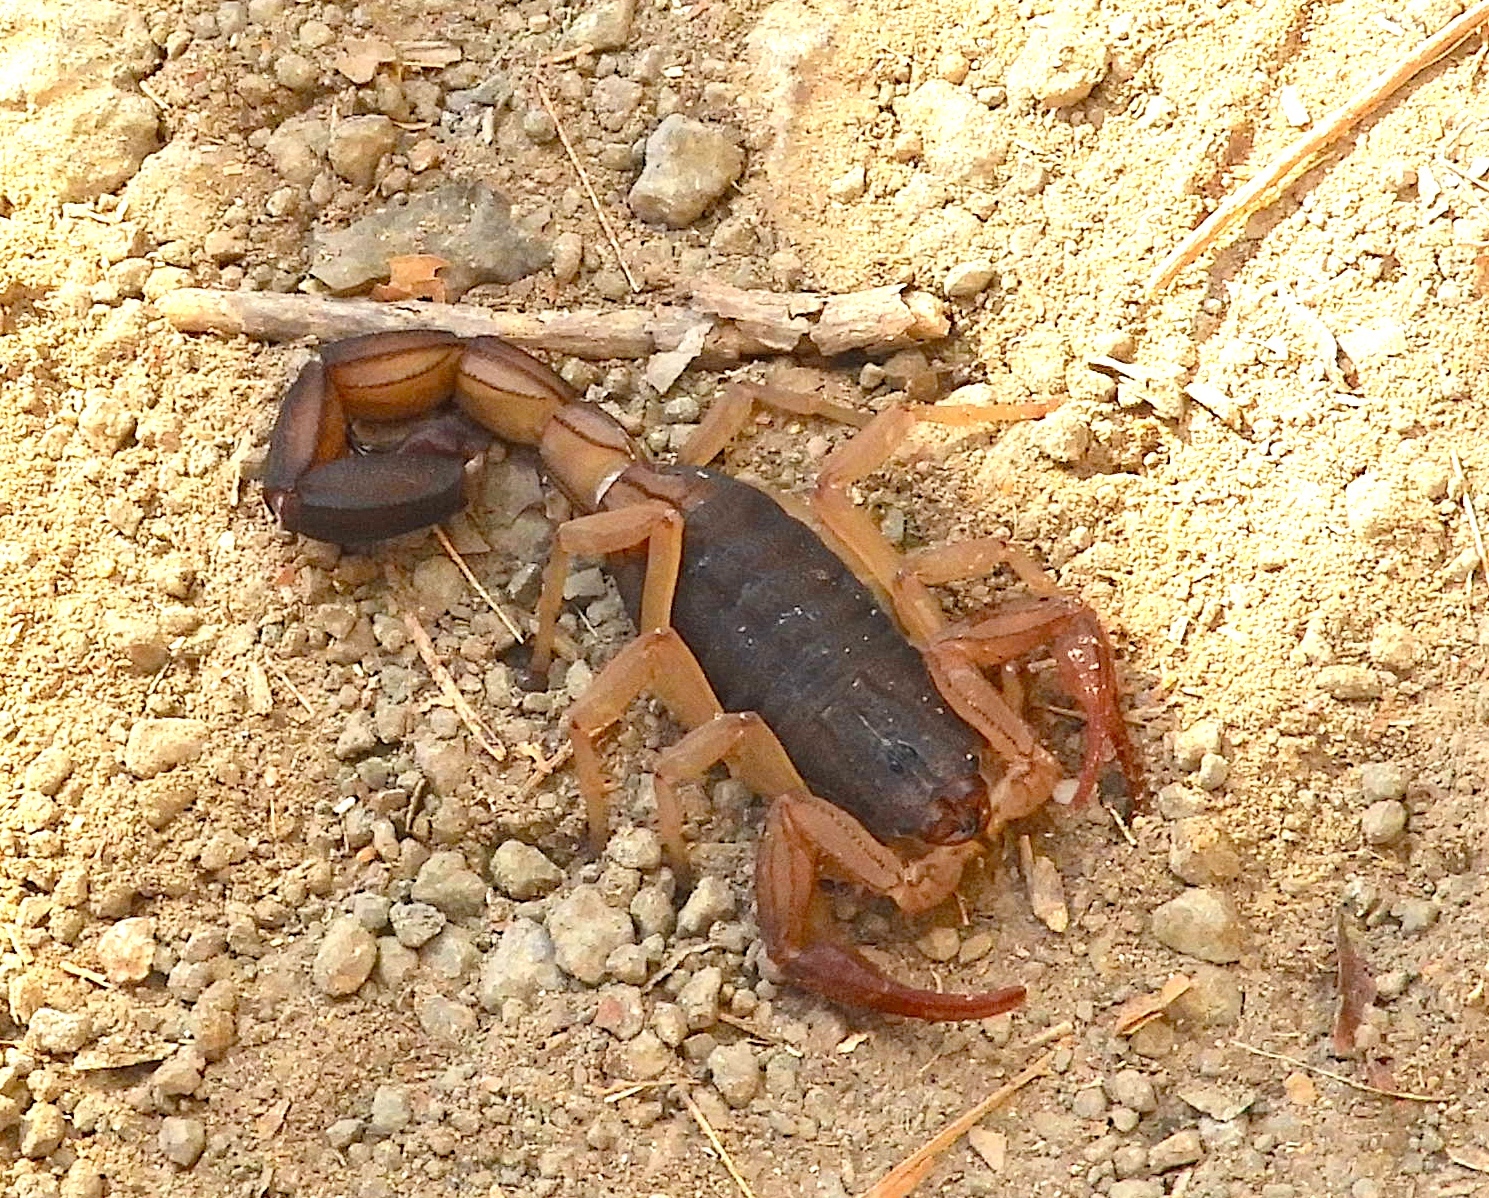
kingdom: Animalia
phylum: Arthropoda
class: Arachnida
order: Scorpiones
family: Buthidae
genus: Centruroides
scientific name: Centruroides edwardsii
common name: Scorpions
